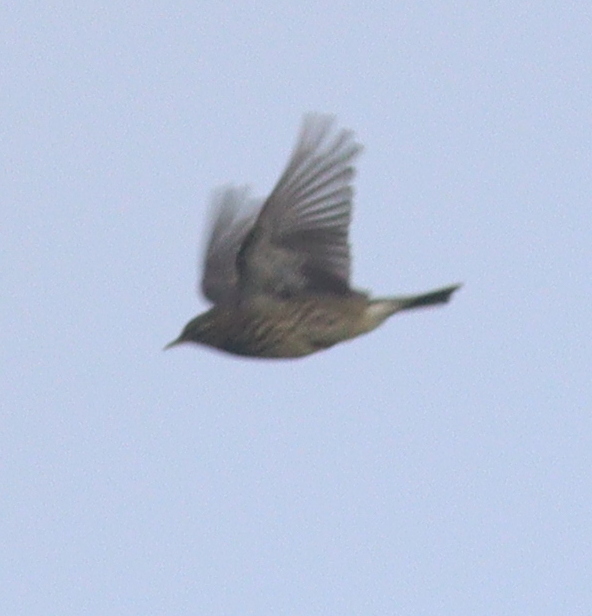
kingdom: Animalia
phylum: Chordata
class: Aves
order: Passeriformes
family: Motacillidae
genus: Anthus
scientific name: Anthus pratensis
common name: Meadow pipit
